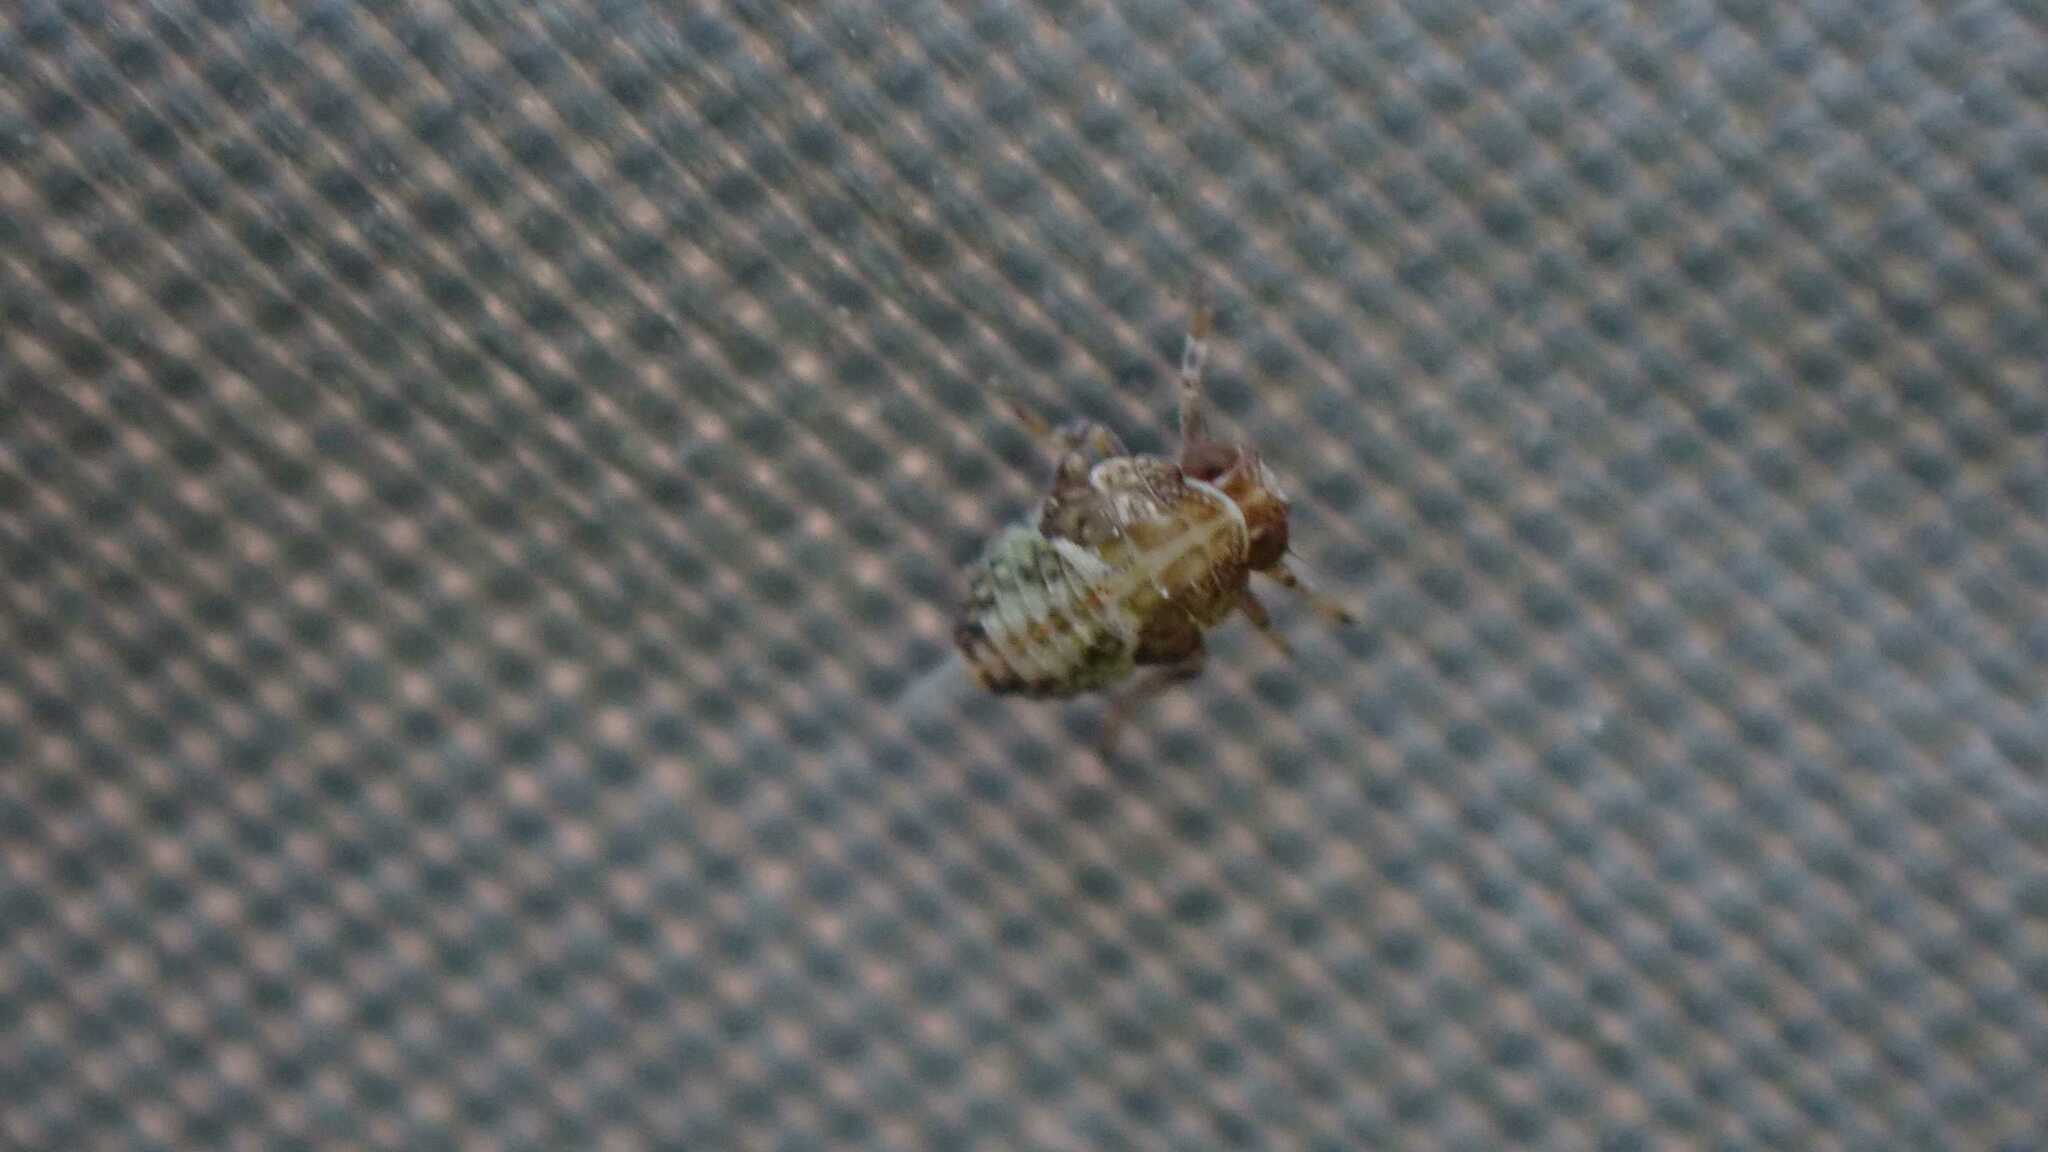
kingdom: Animalia
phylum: Arthropoda
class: Insecta
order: Hemiptera
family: Issidae
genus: Issus
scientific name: Issus
